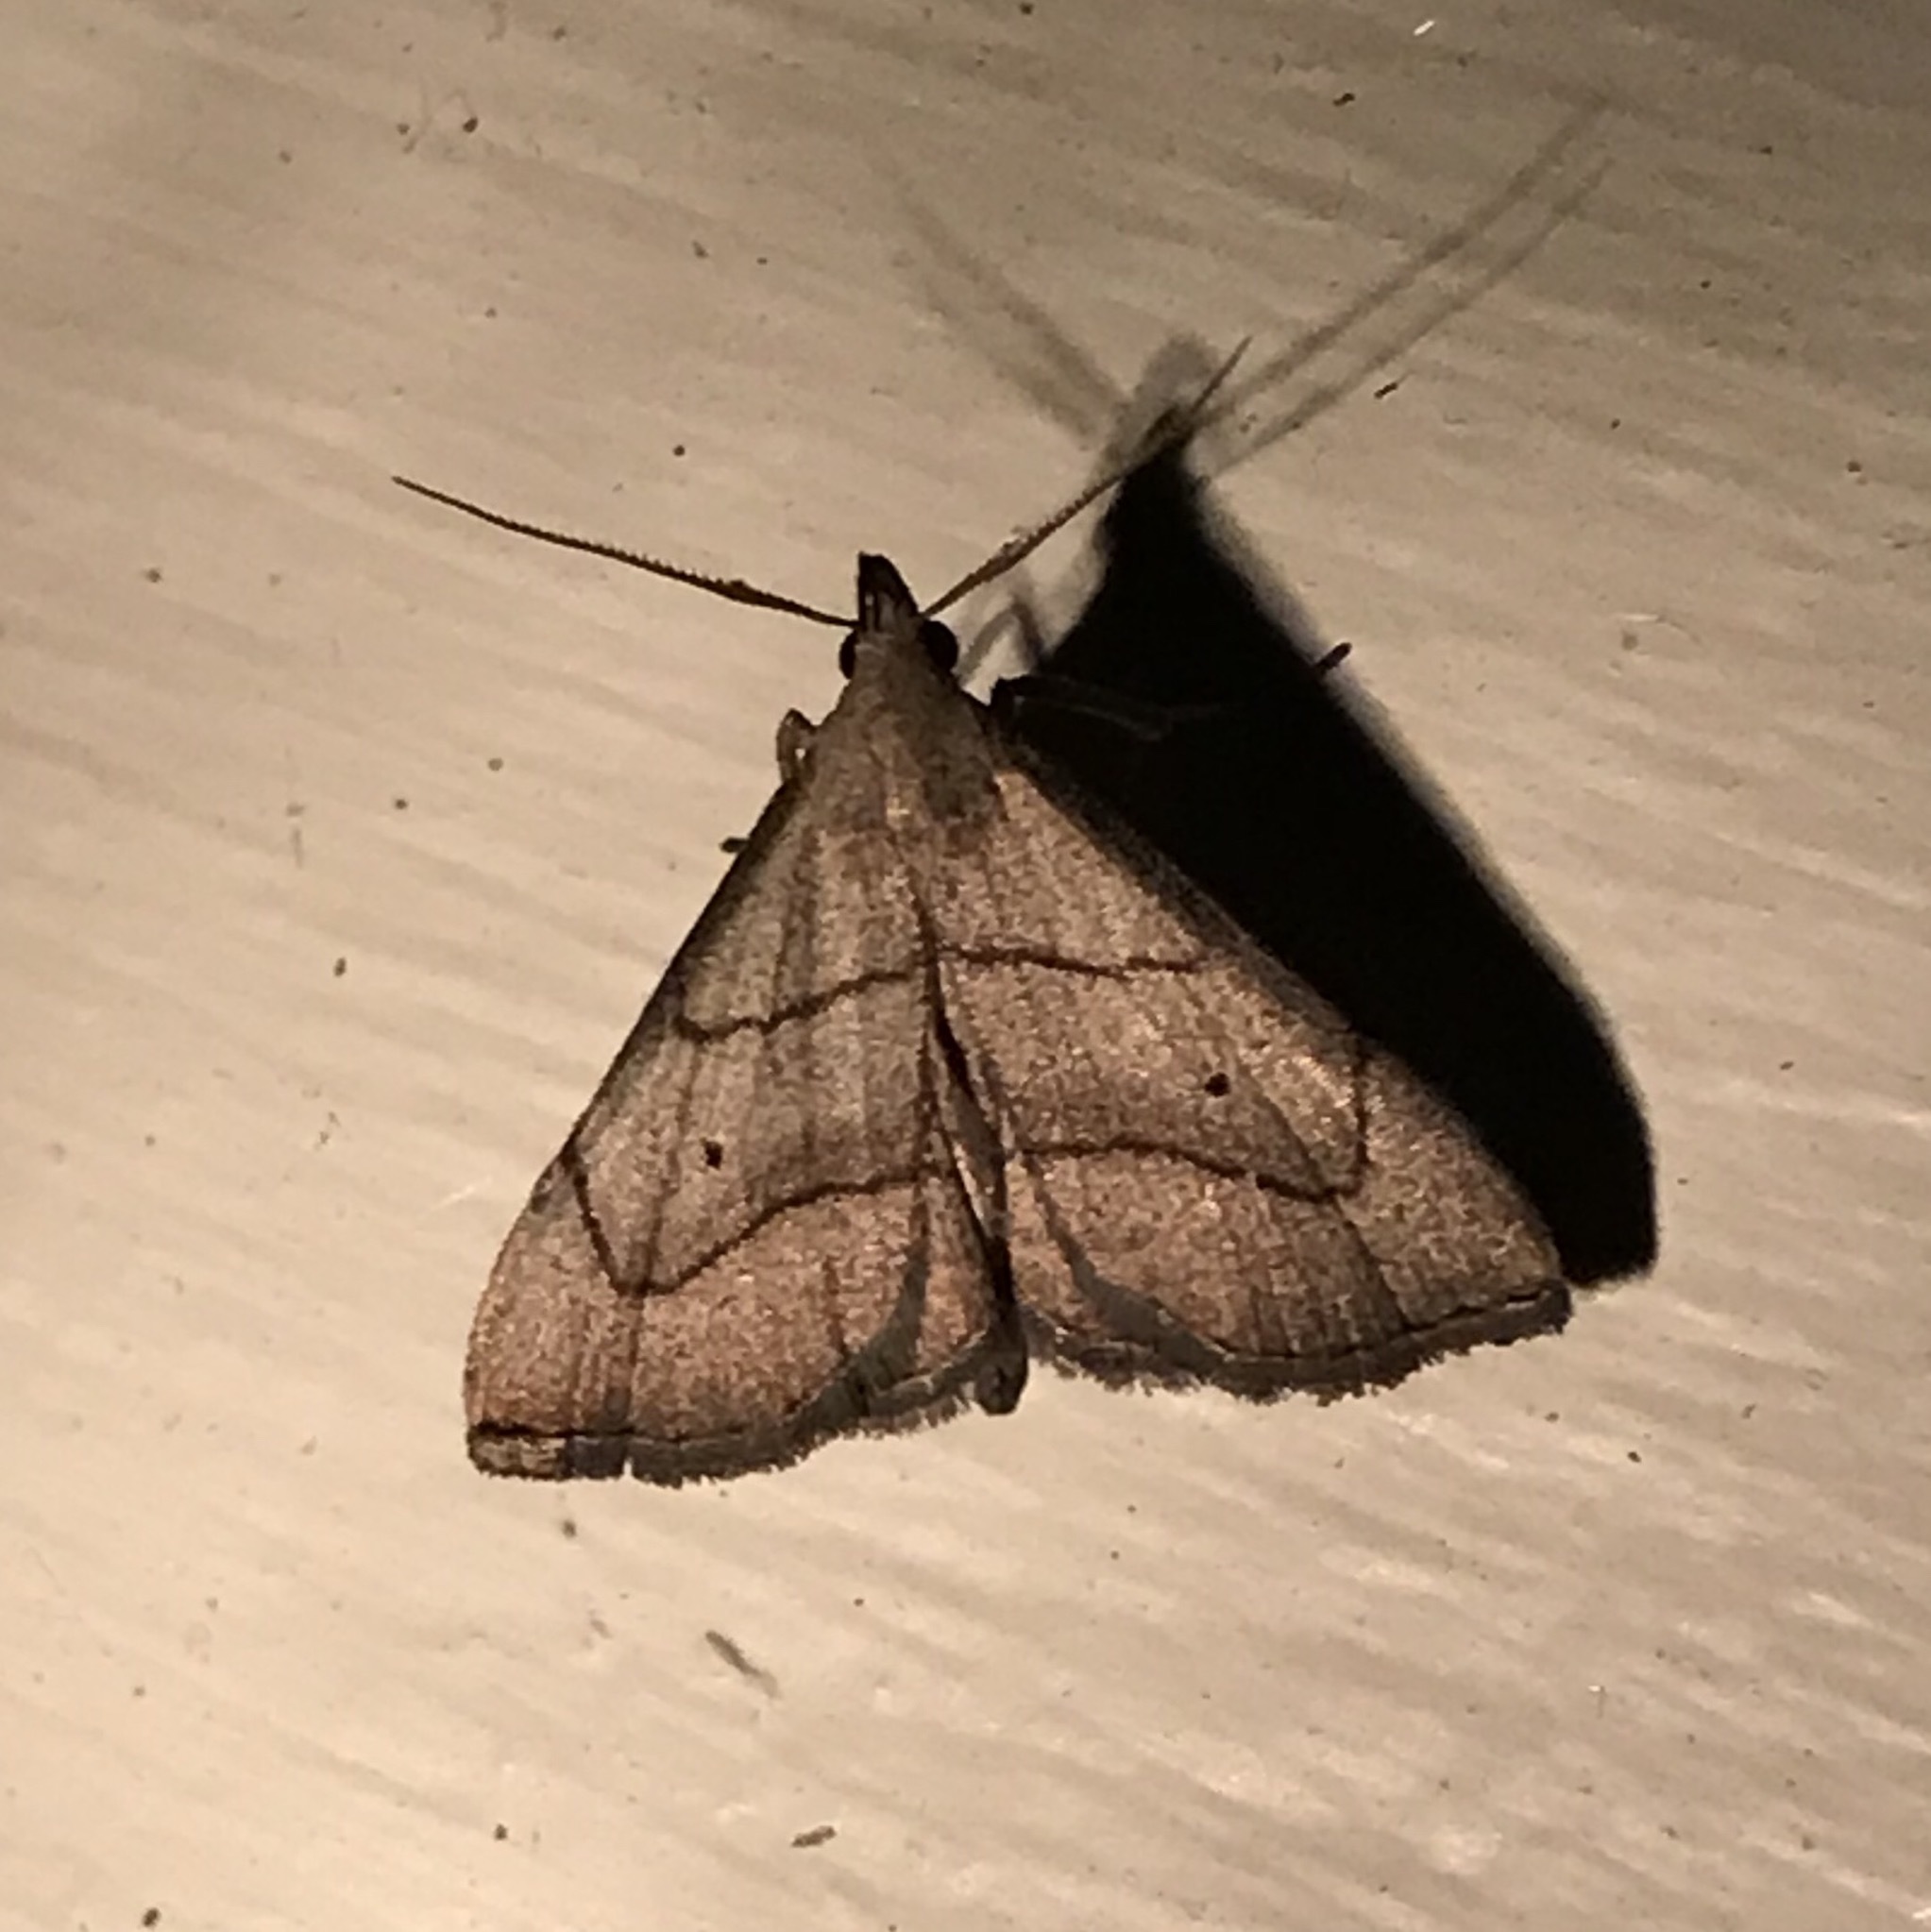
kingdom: Animalia
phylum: Arthropoda
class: Insecta
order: Lepidoptera
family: Erebidae
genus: Macrochilo
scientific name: Macrochilo litophora
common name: Brown-lined owlet
